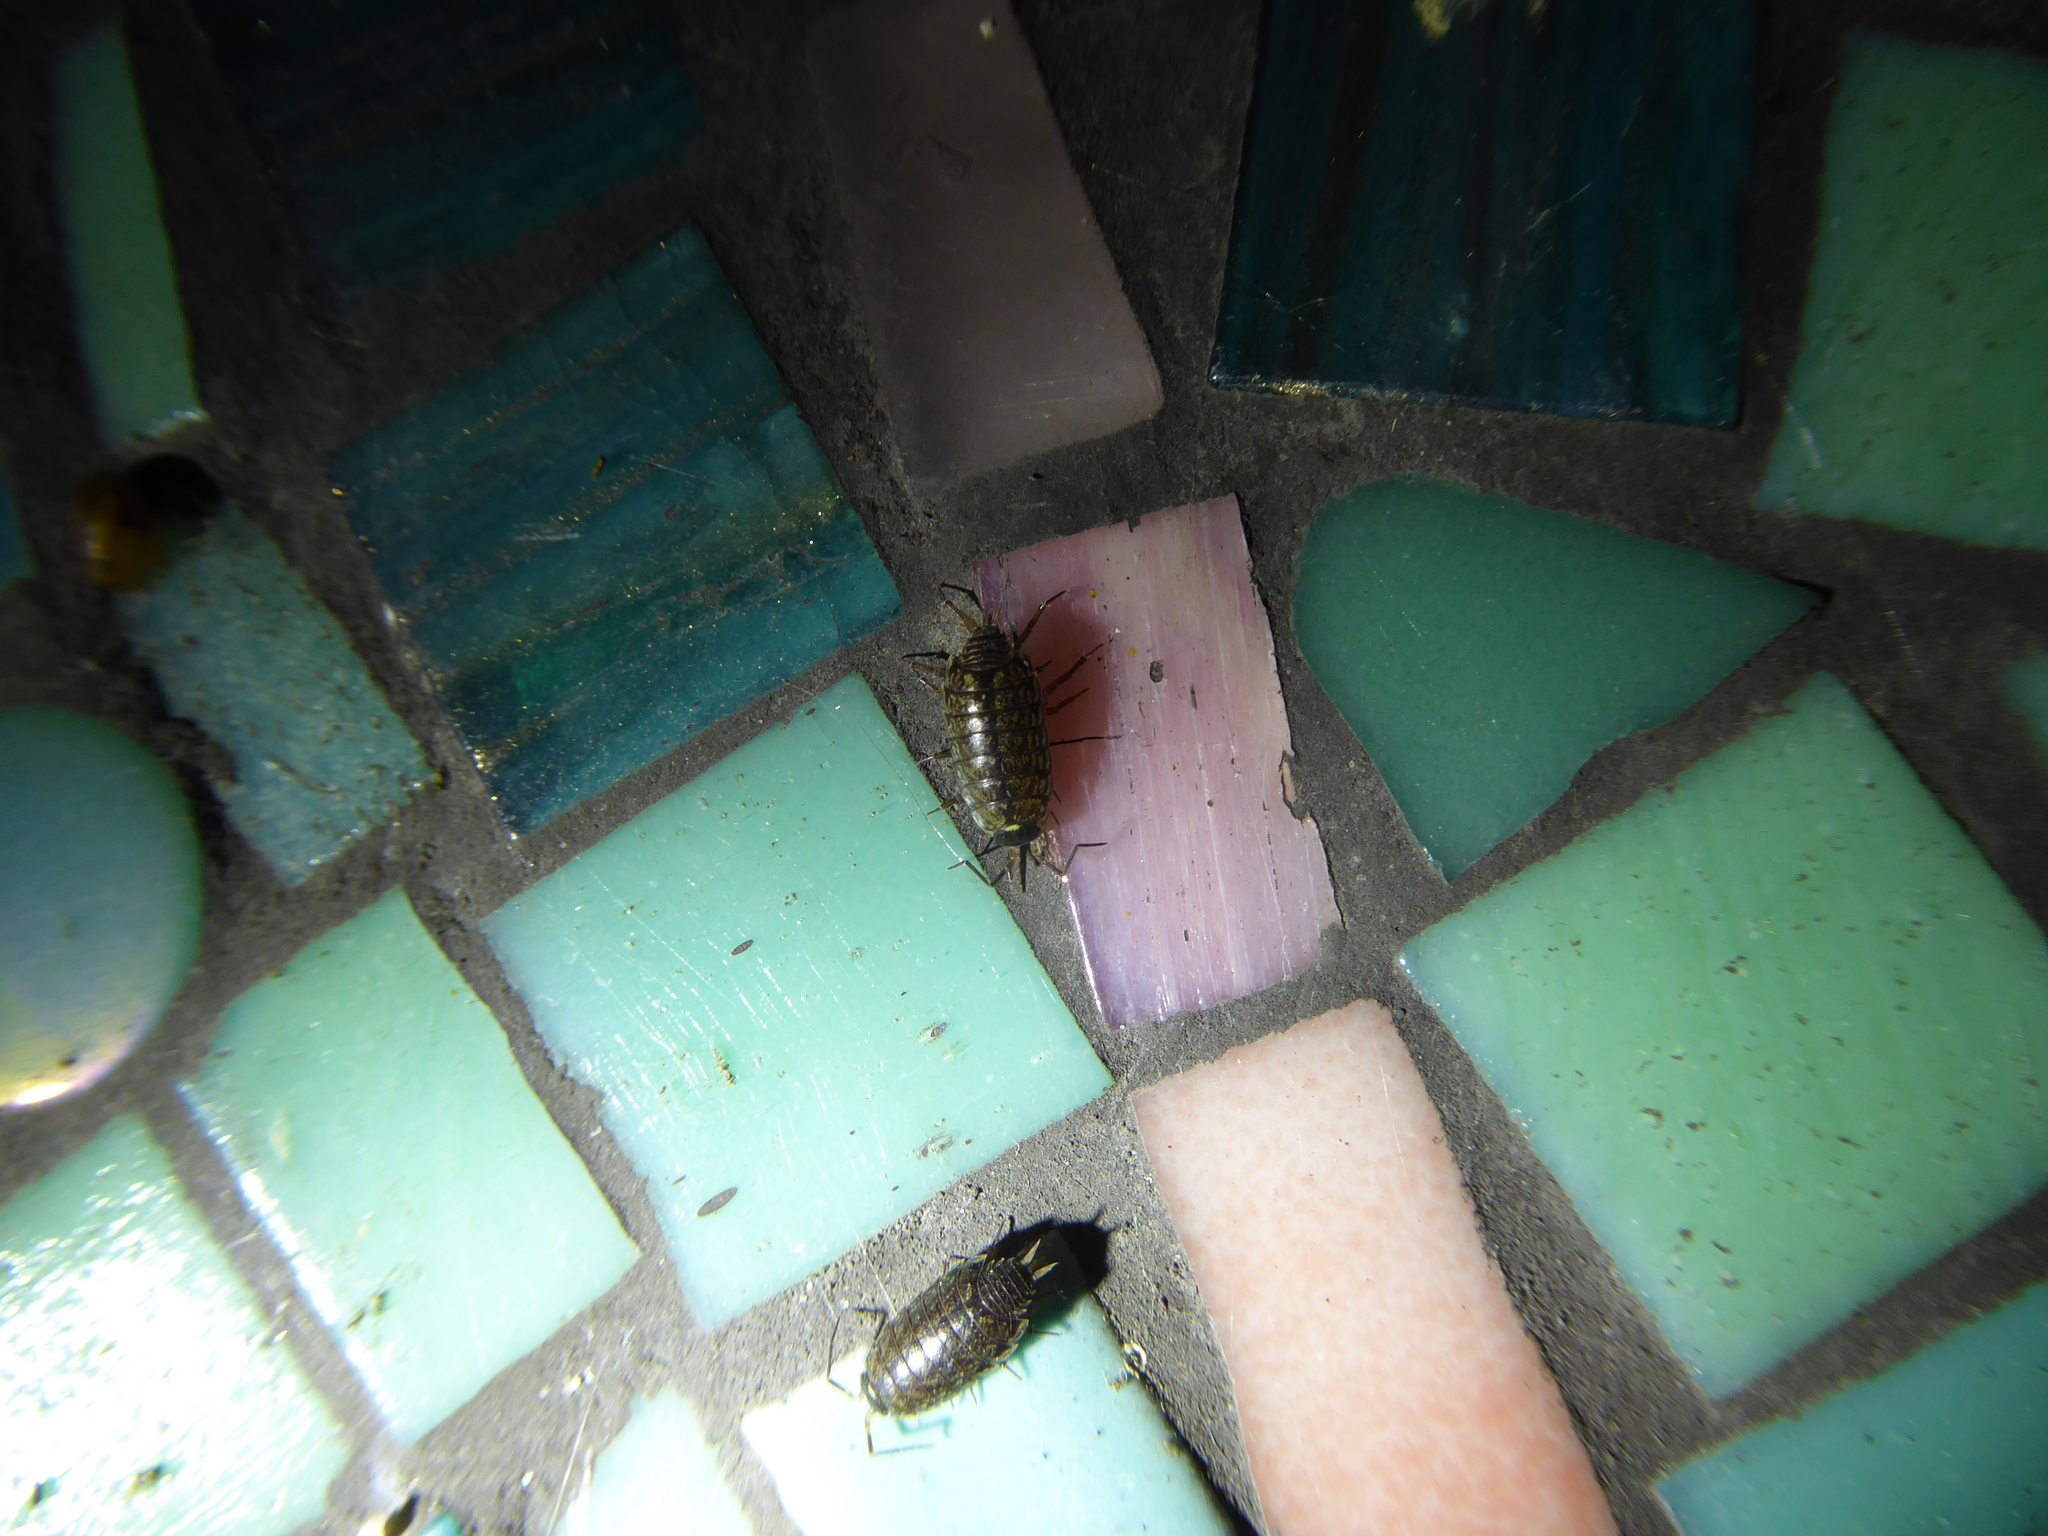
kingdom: Animalia
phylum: Arthropoda
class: Malacostraca
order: Isopoda
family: Philosciidae
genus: Philoscia
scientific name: Philoscia muscorum
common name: Common striped woodlouse
